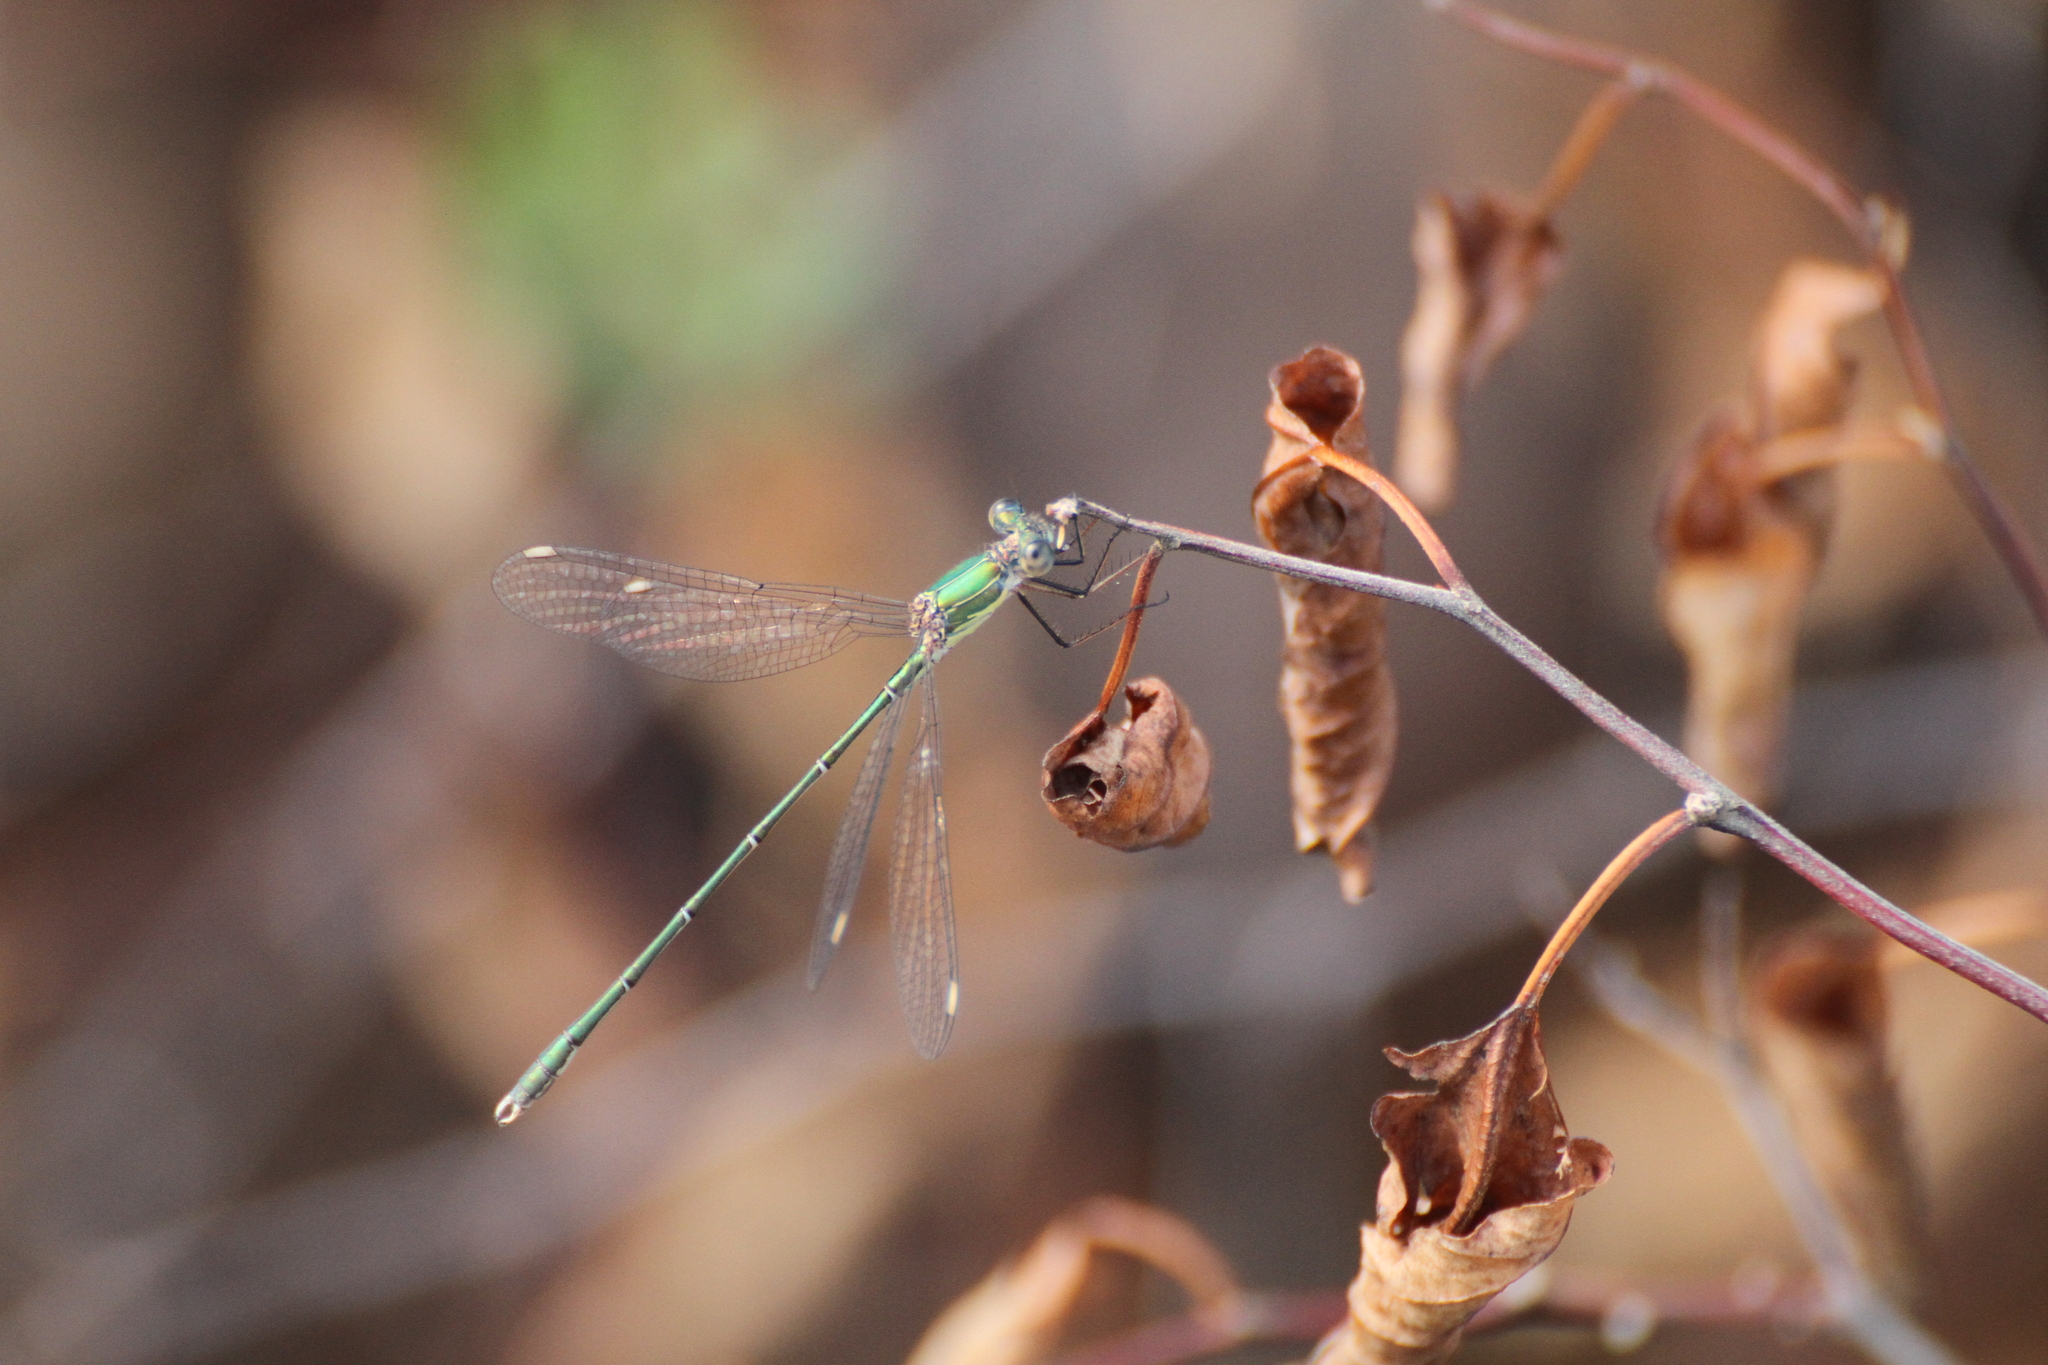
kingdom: Animalia
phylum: Arthropoda
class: Insecta
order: Odonata
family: Lestidae
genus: Chalcolestes
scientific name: Chalcolestes viridis
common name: Green emerald damselfly
